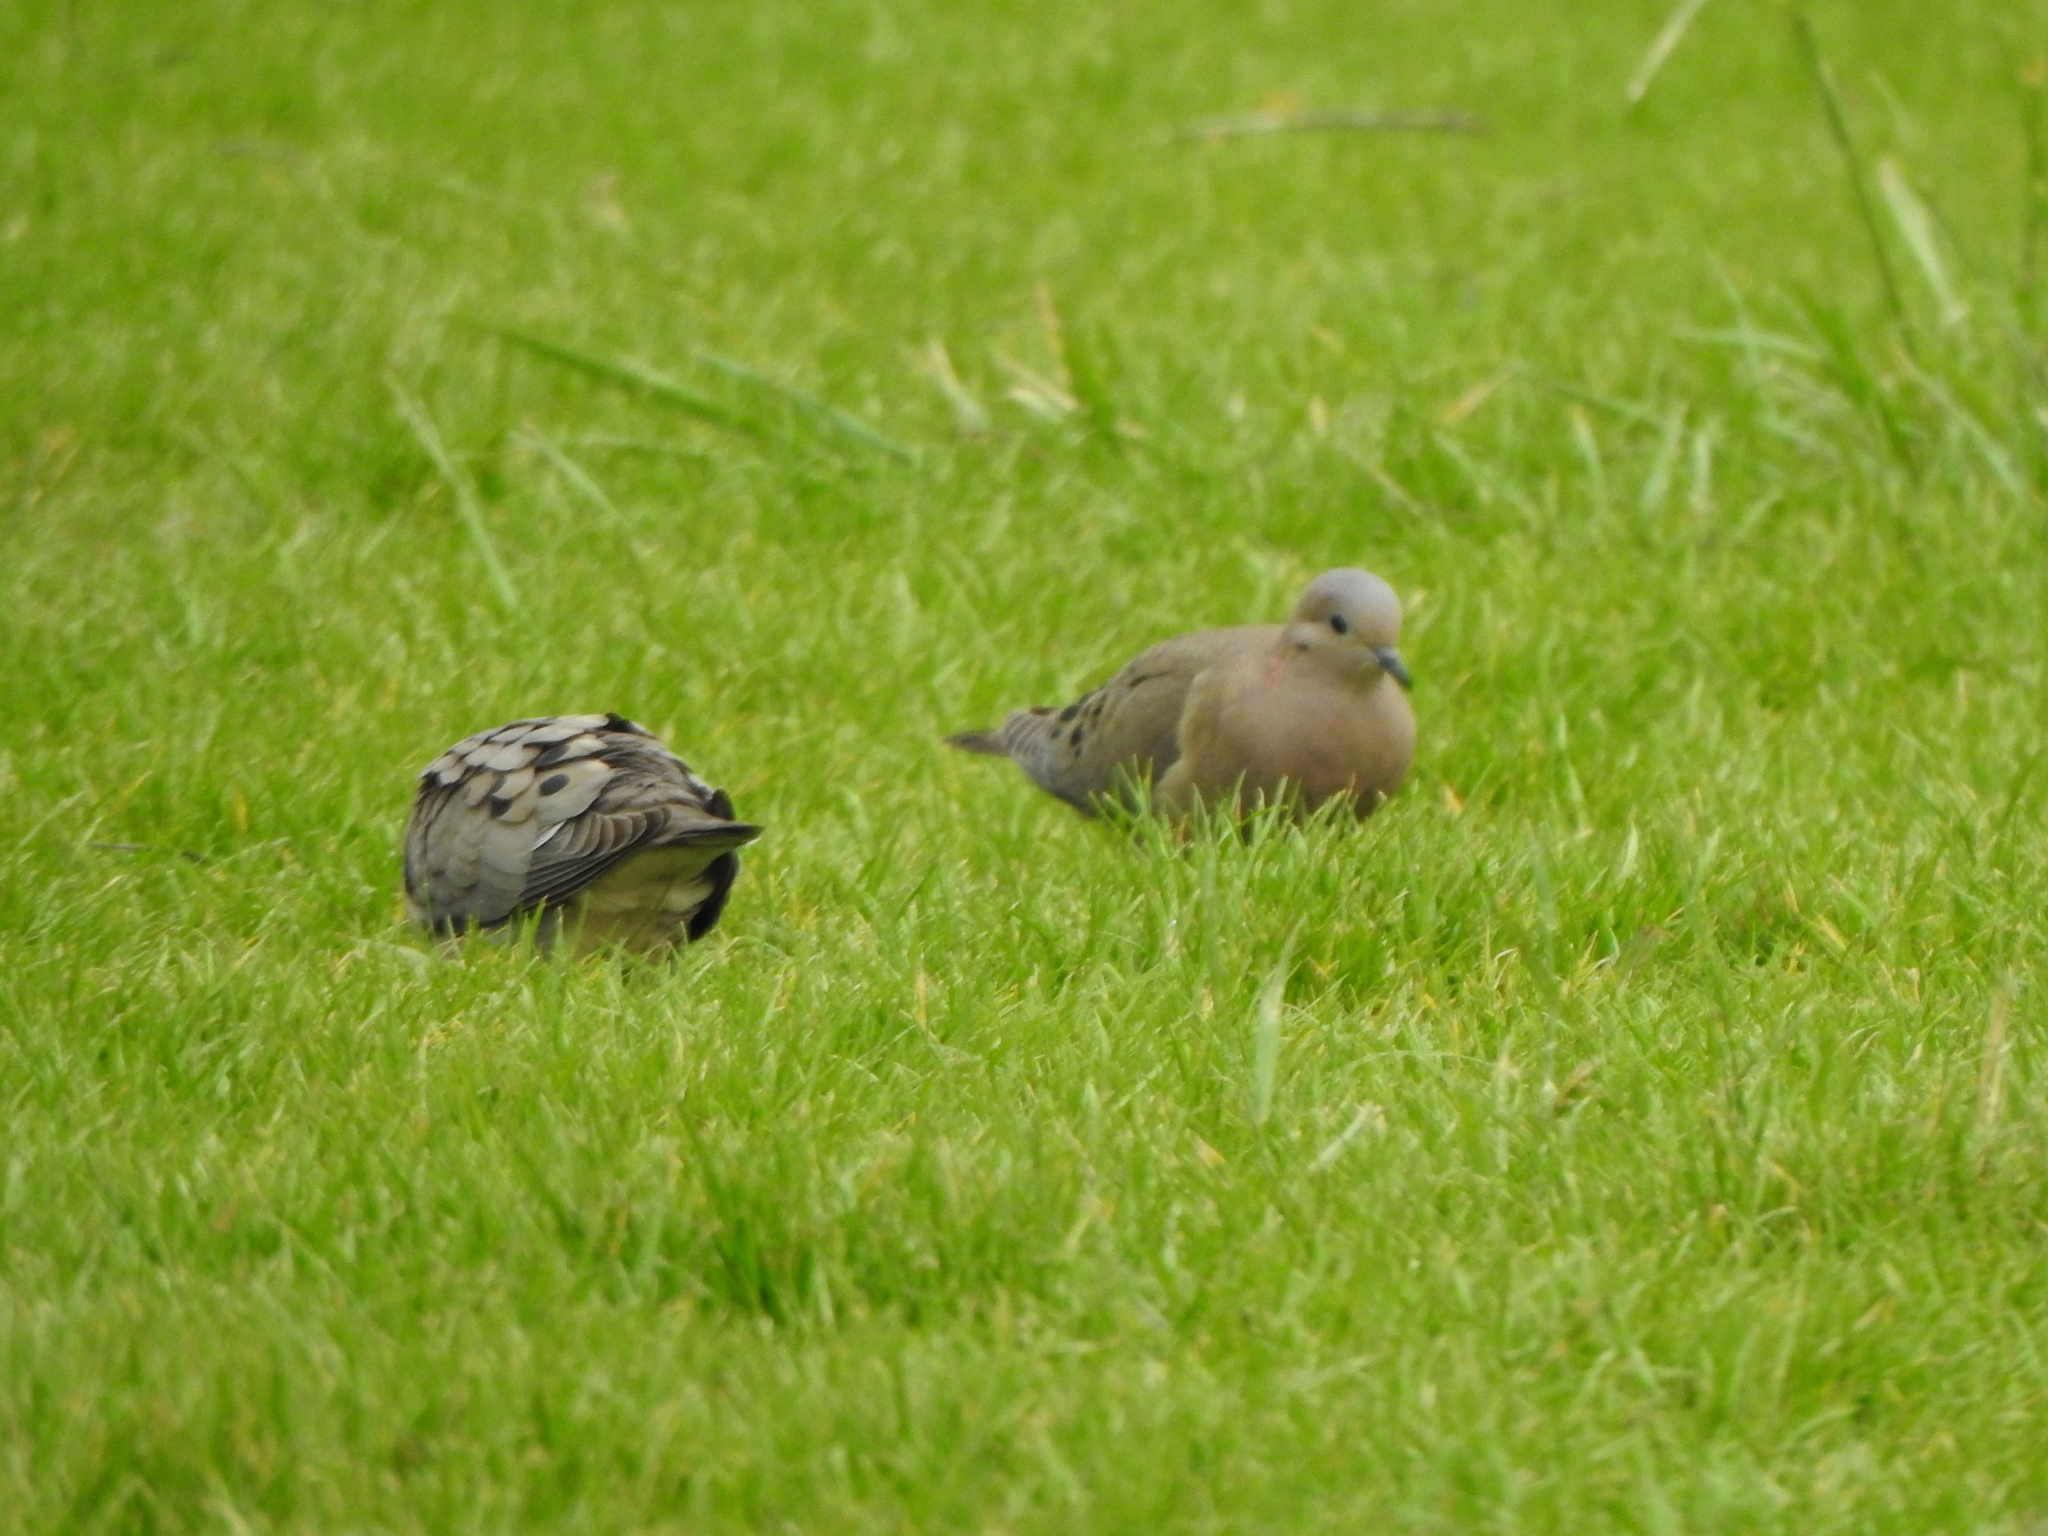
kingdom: Animalia
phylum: Chordata
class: Aves
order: Columbiformes
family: Columbidae
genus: Zenaida
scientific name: Zenaida auriculata
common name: Eared dove
